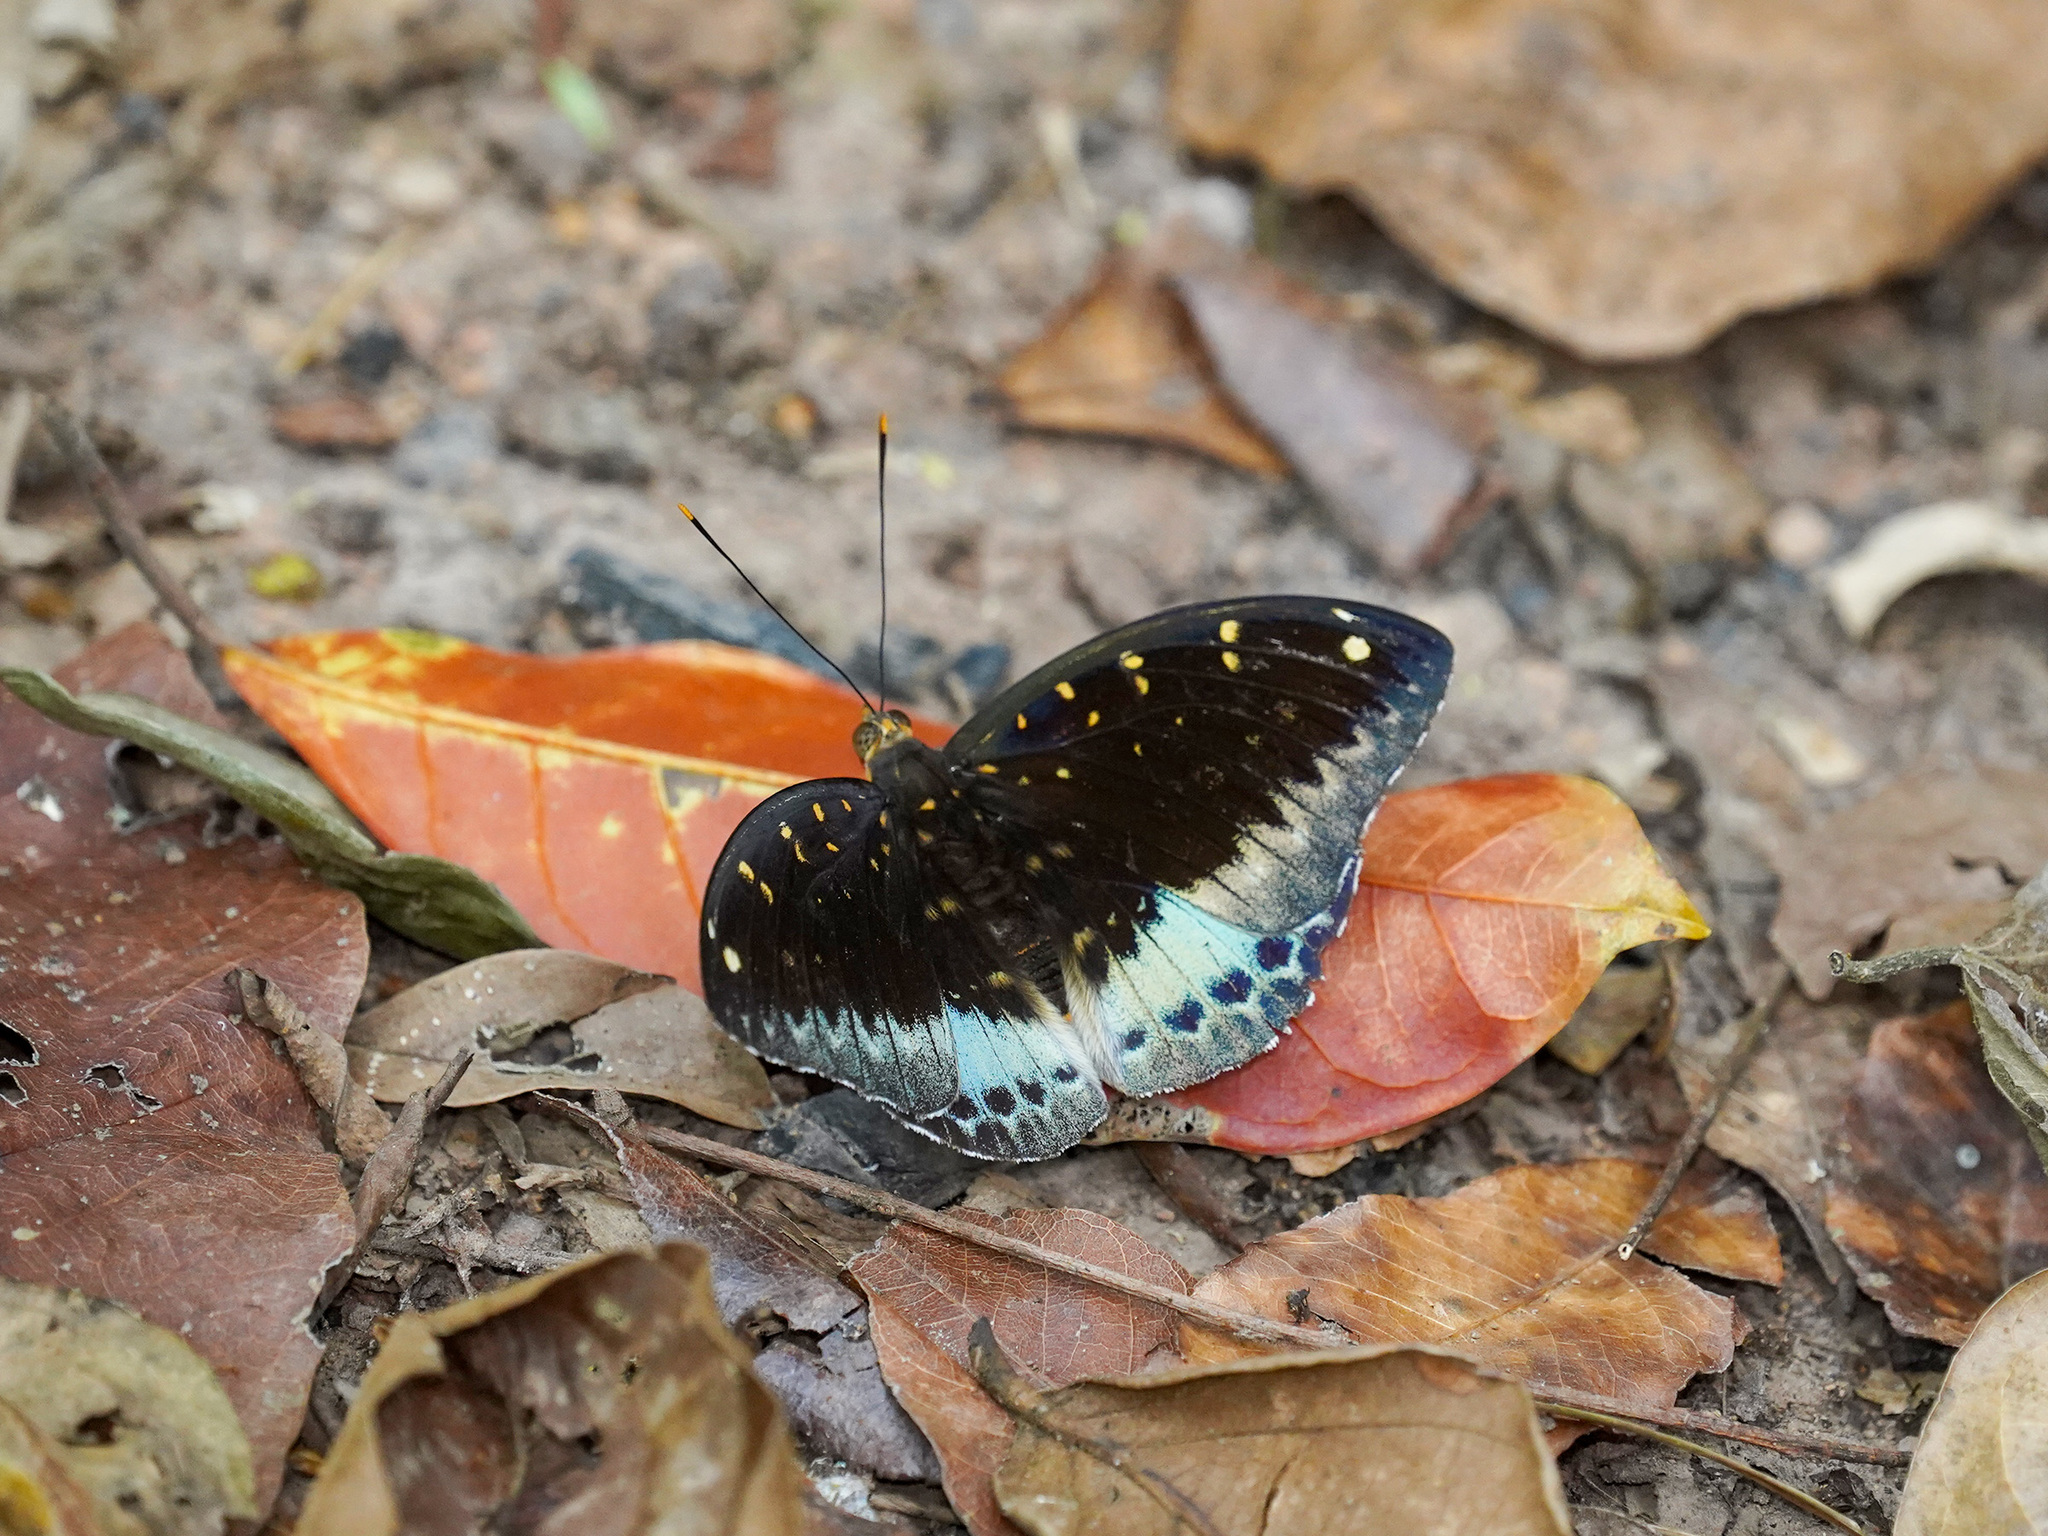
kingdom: Animalia
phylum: Arthropoda
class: Insecta
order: Lepidoptera
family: Nymphalidae
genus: Lexias
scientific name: Lexias pardalis
